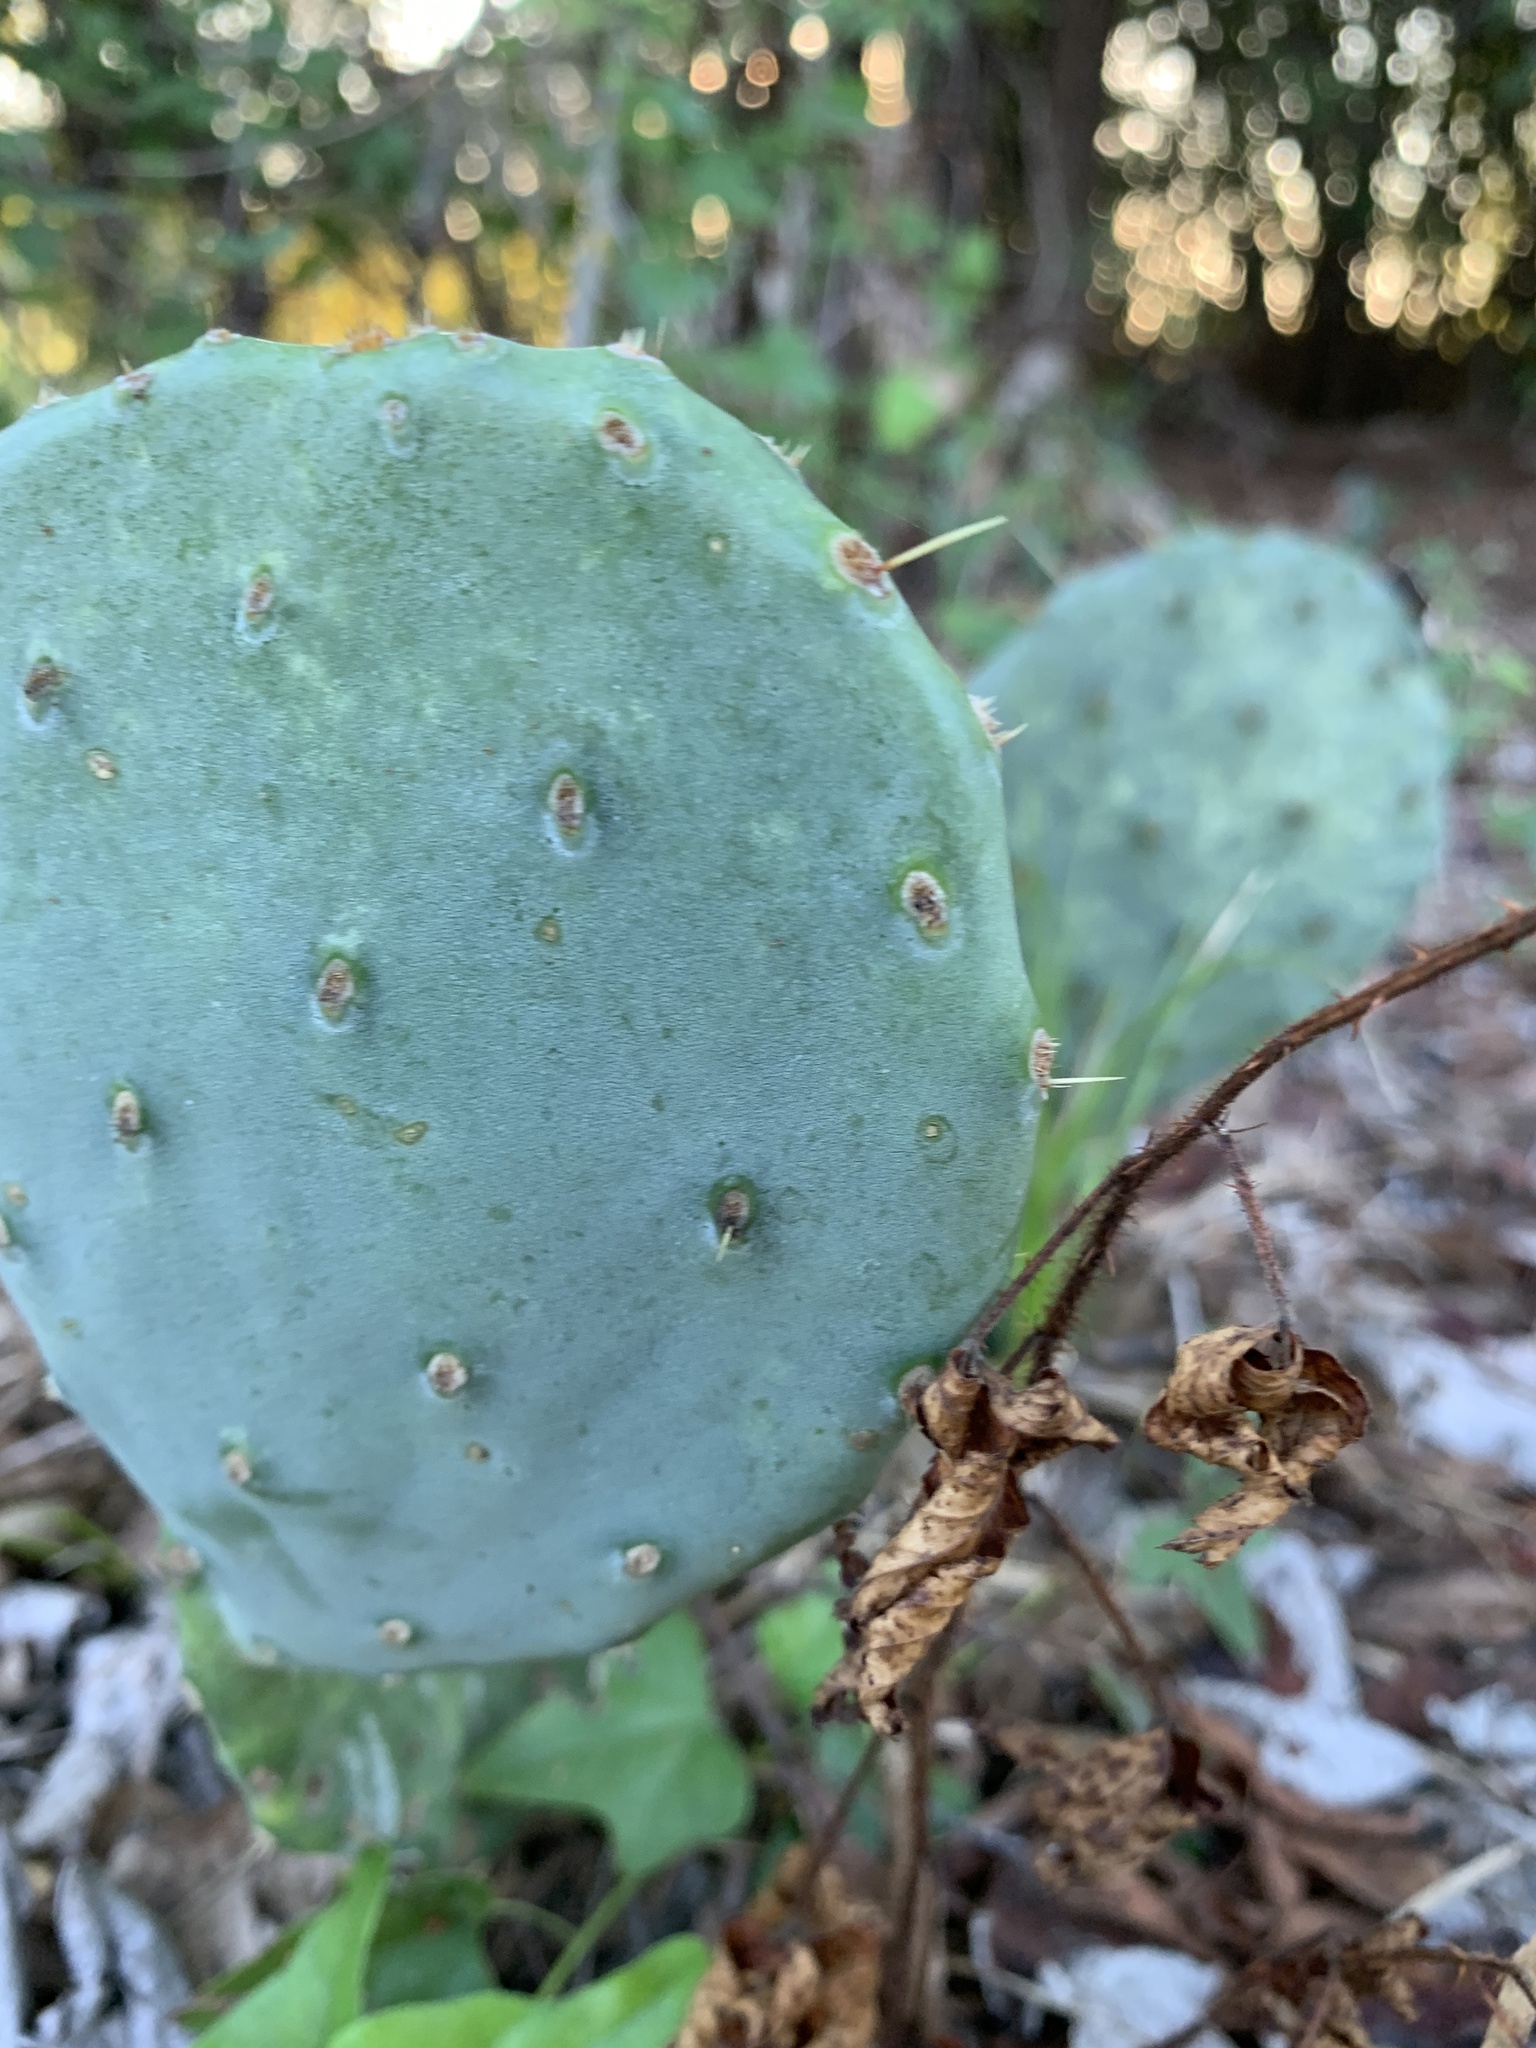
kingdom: Plantae
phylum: Tracheophyta
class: Magnoliopsida
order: Caryophyllales
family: Cactaceae
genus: Opuntia
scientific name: Opuntia orbiculata
